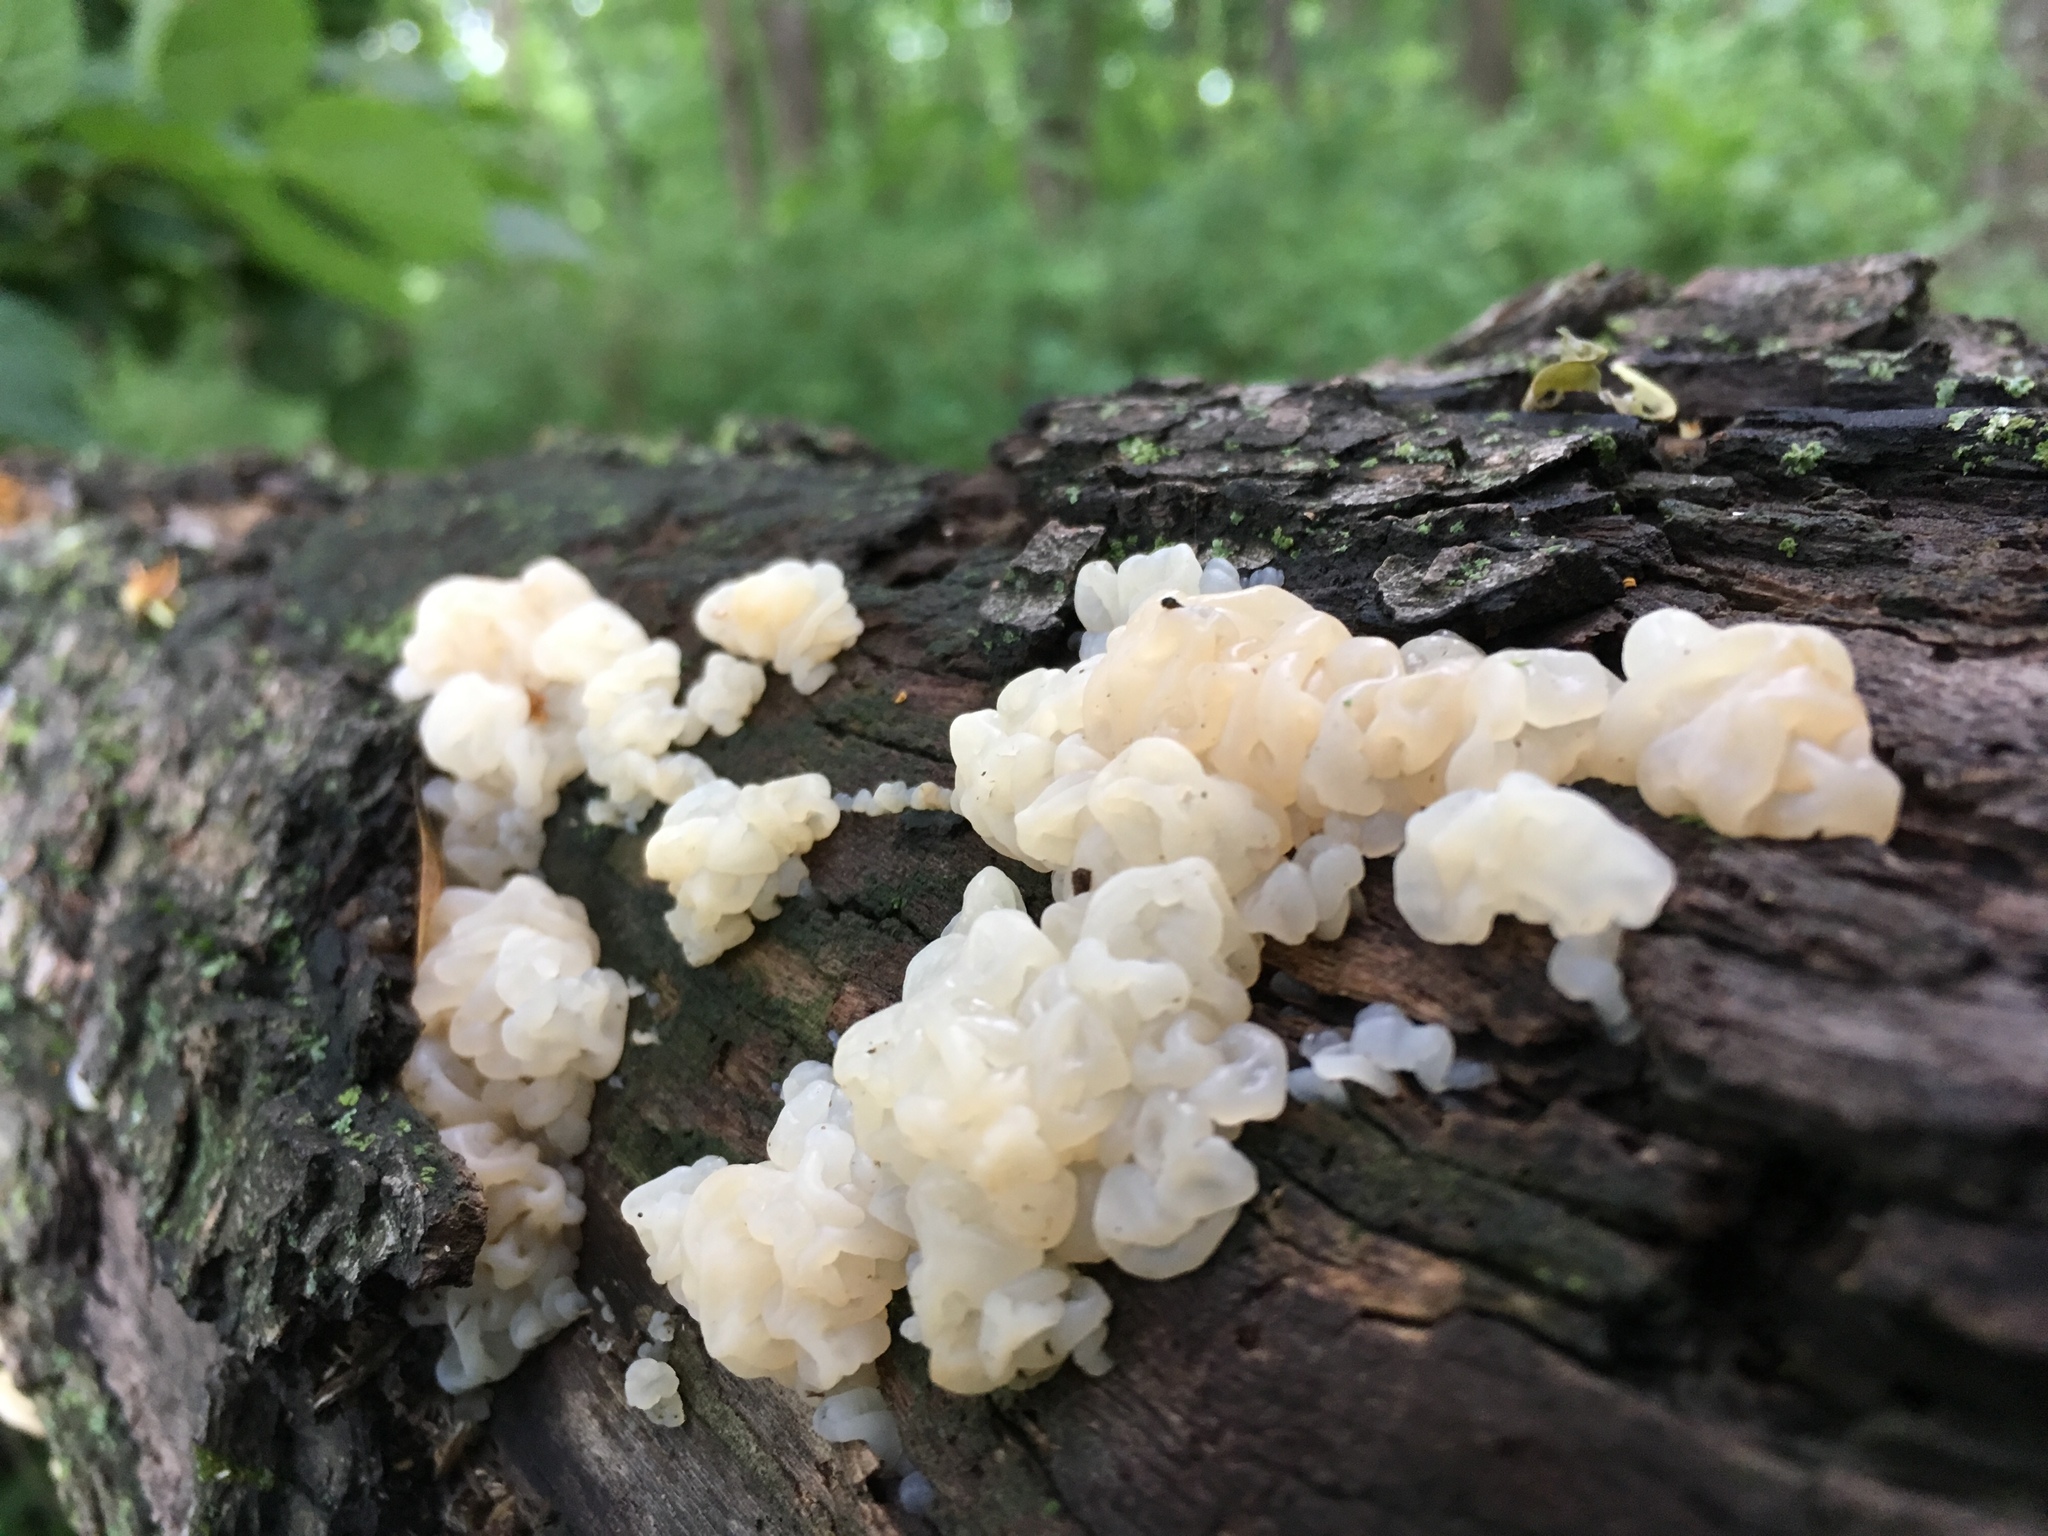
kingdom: Fungi
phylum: Basidiomycota
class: Agaricomycetes
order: Auriculariales
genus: Ductifera
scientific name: Ductifera pululahuana
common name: White jelly fungus
